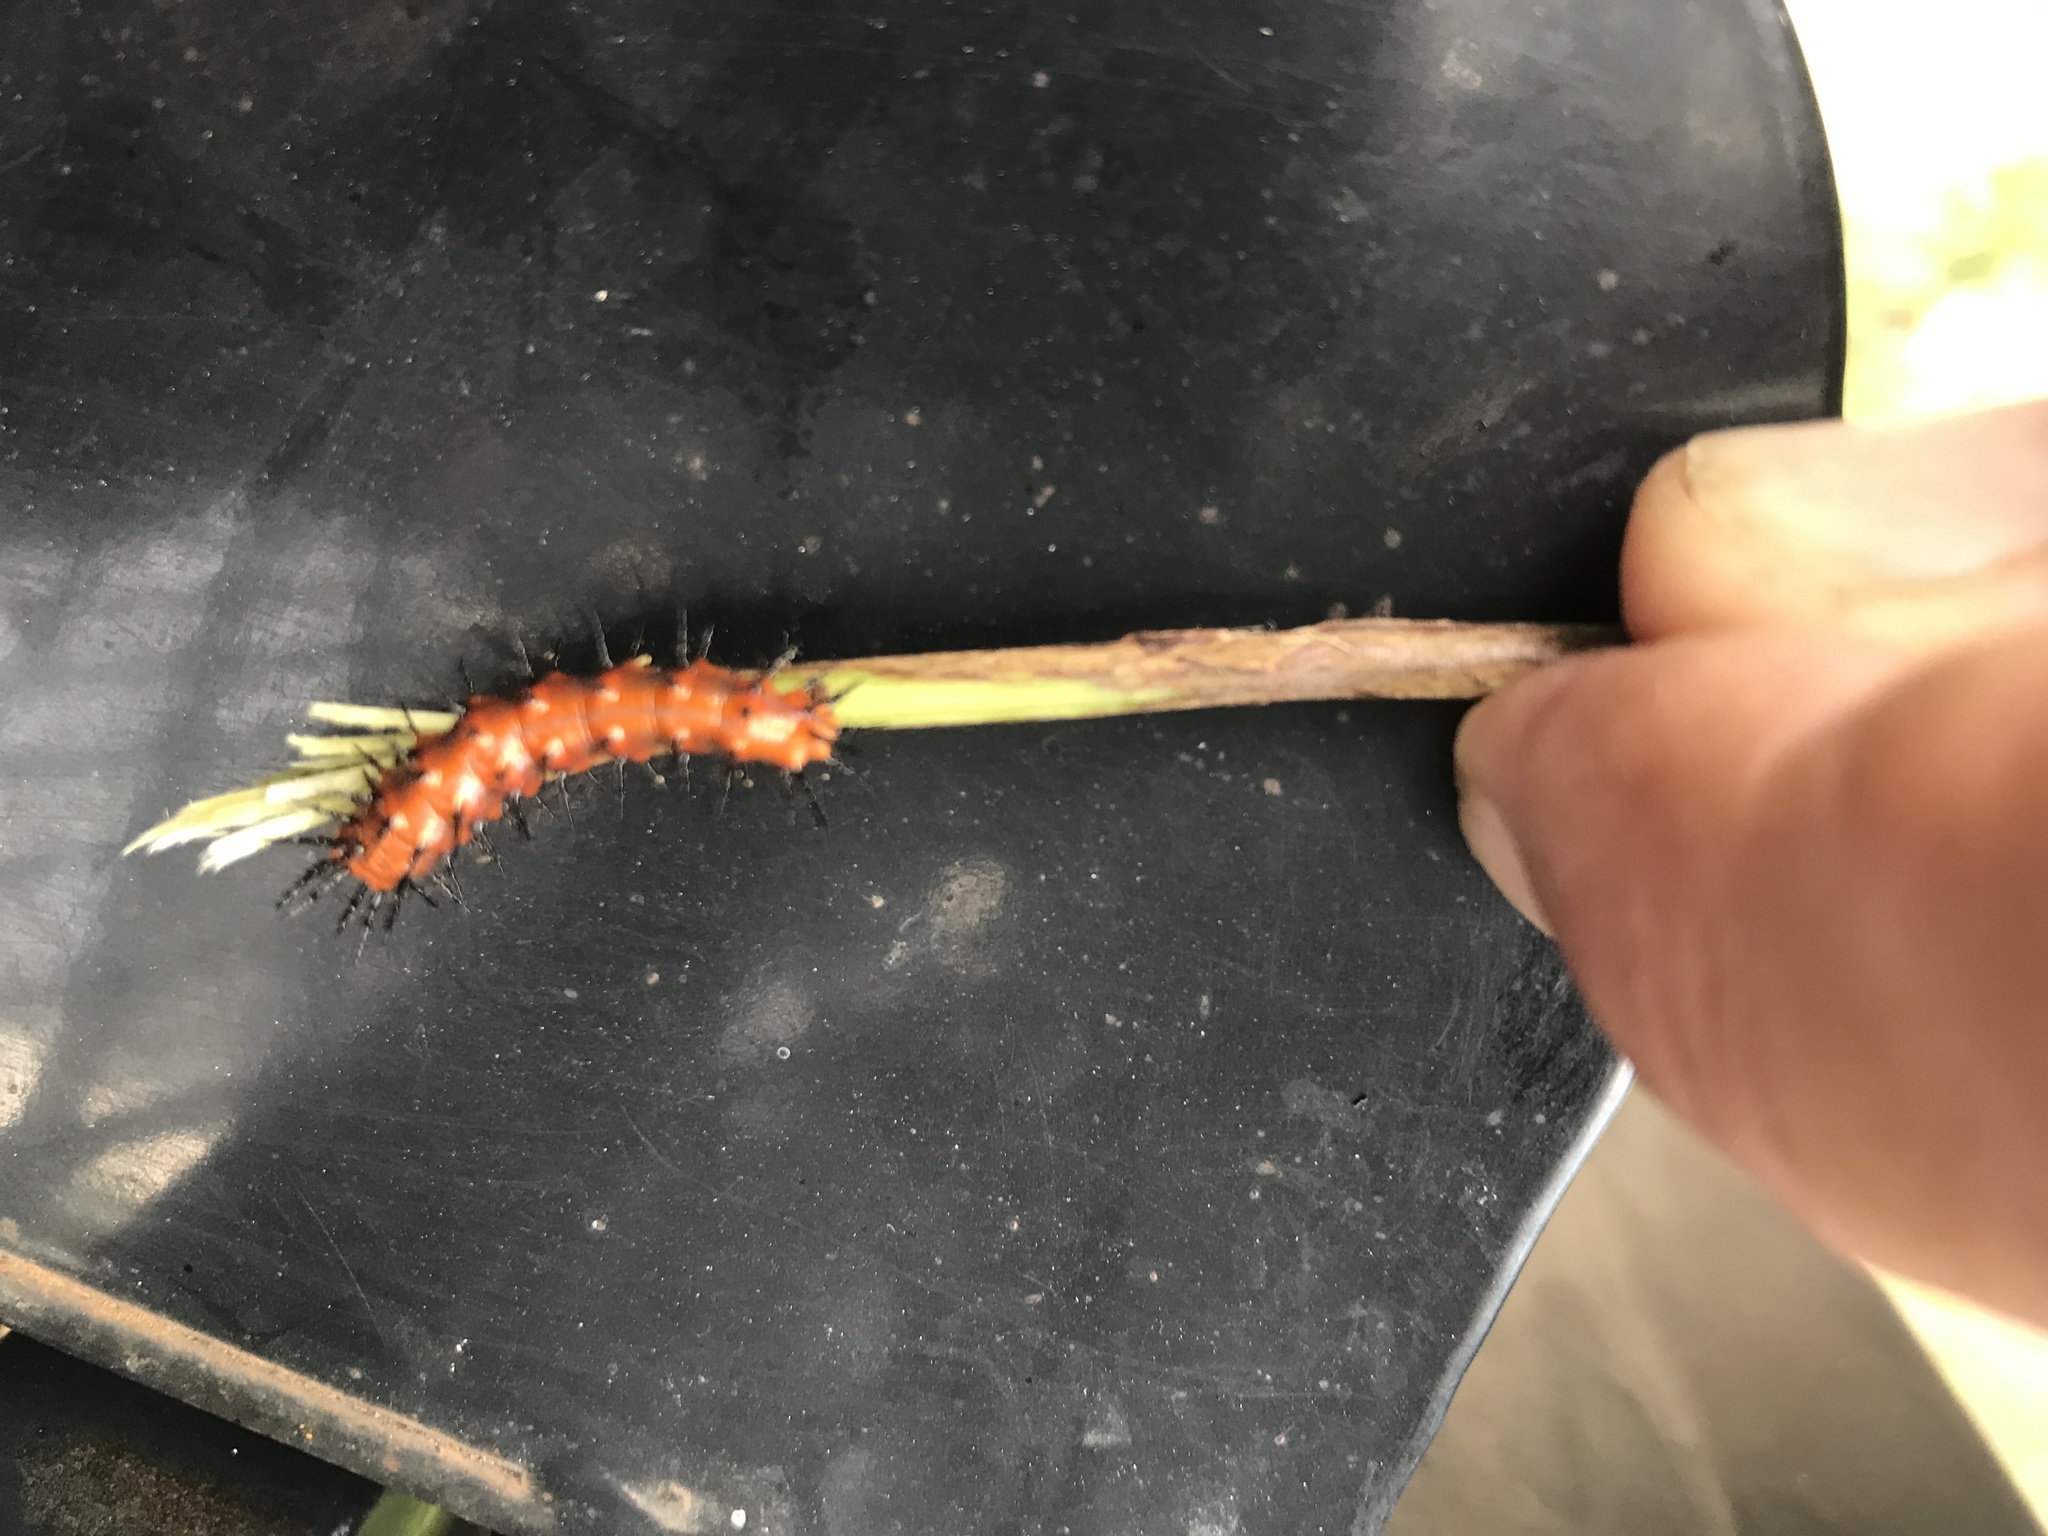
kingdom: Animalia
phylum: Arthropoda
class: Insecta
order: Lepidoptera
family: Nymphalidae
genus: Dione
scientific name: Dione vanillae
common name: Gulf fritillary
